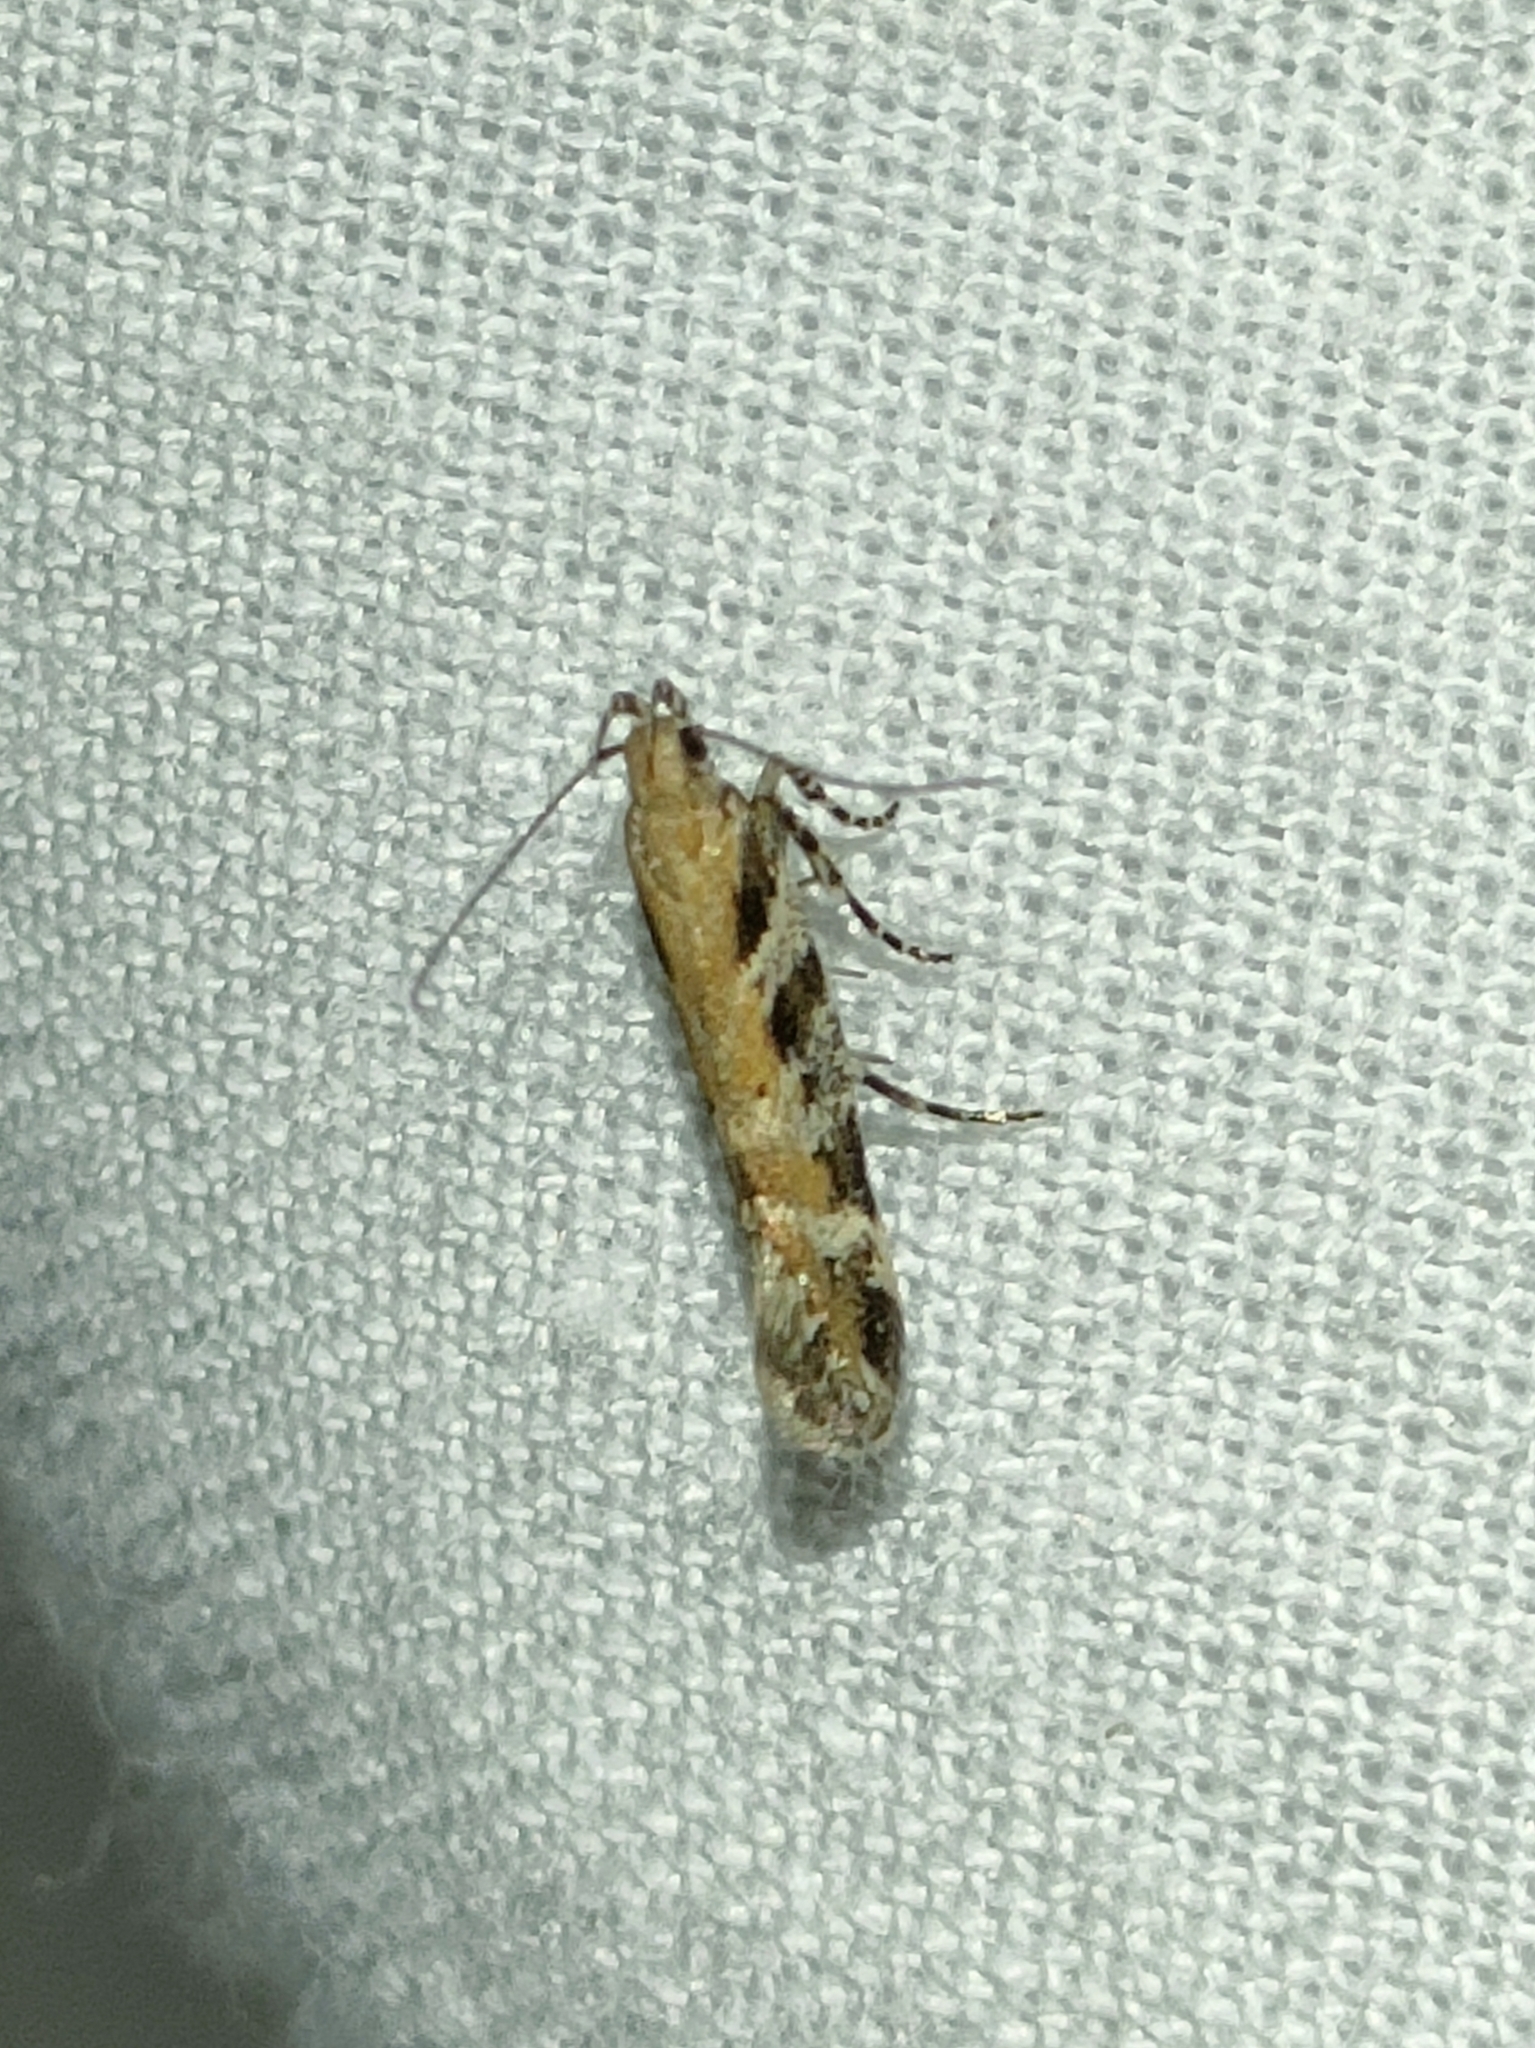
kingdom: Animalia
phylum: Arthropoda
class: Insecta
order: Lepidoptera
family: Gelechiidae
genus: Aristotelia
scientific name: Aristotelia billii
